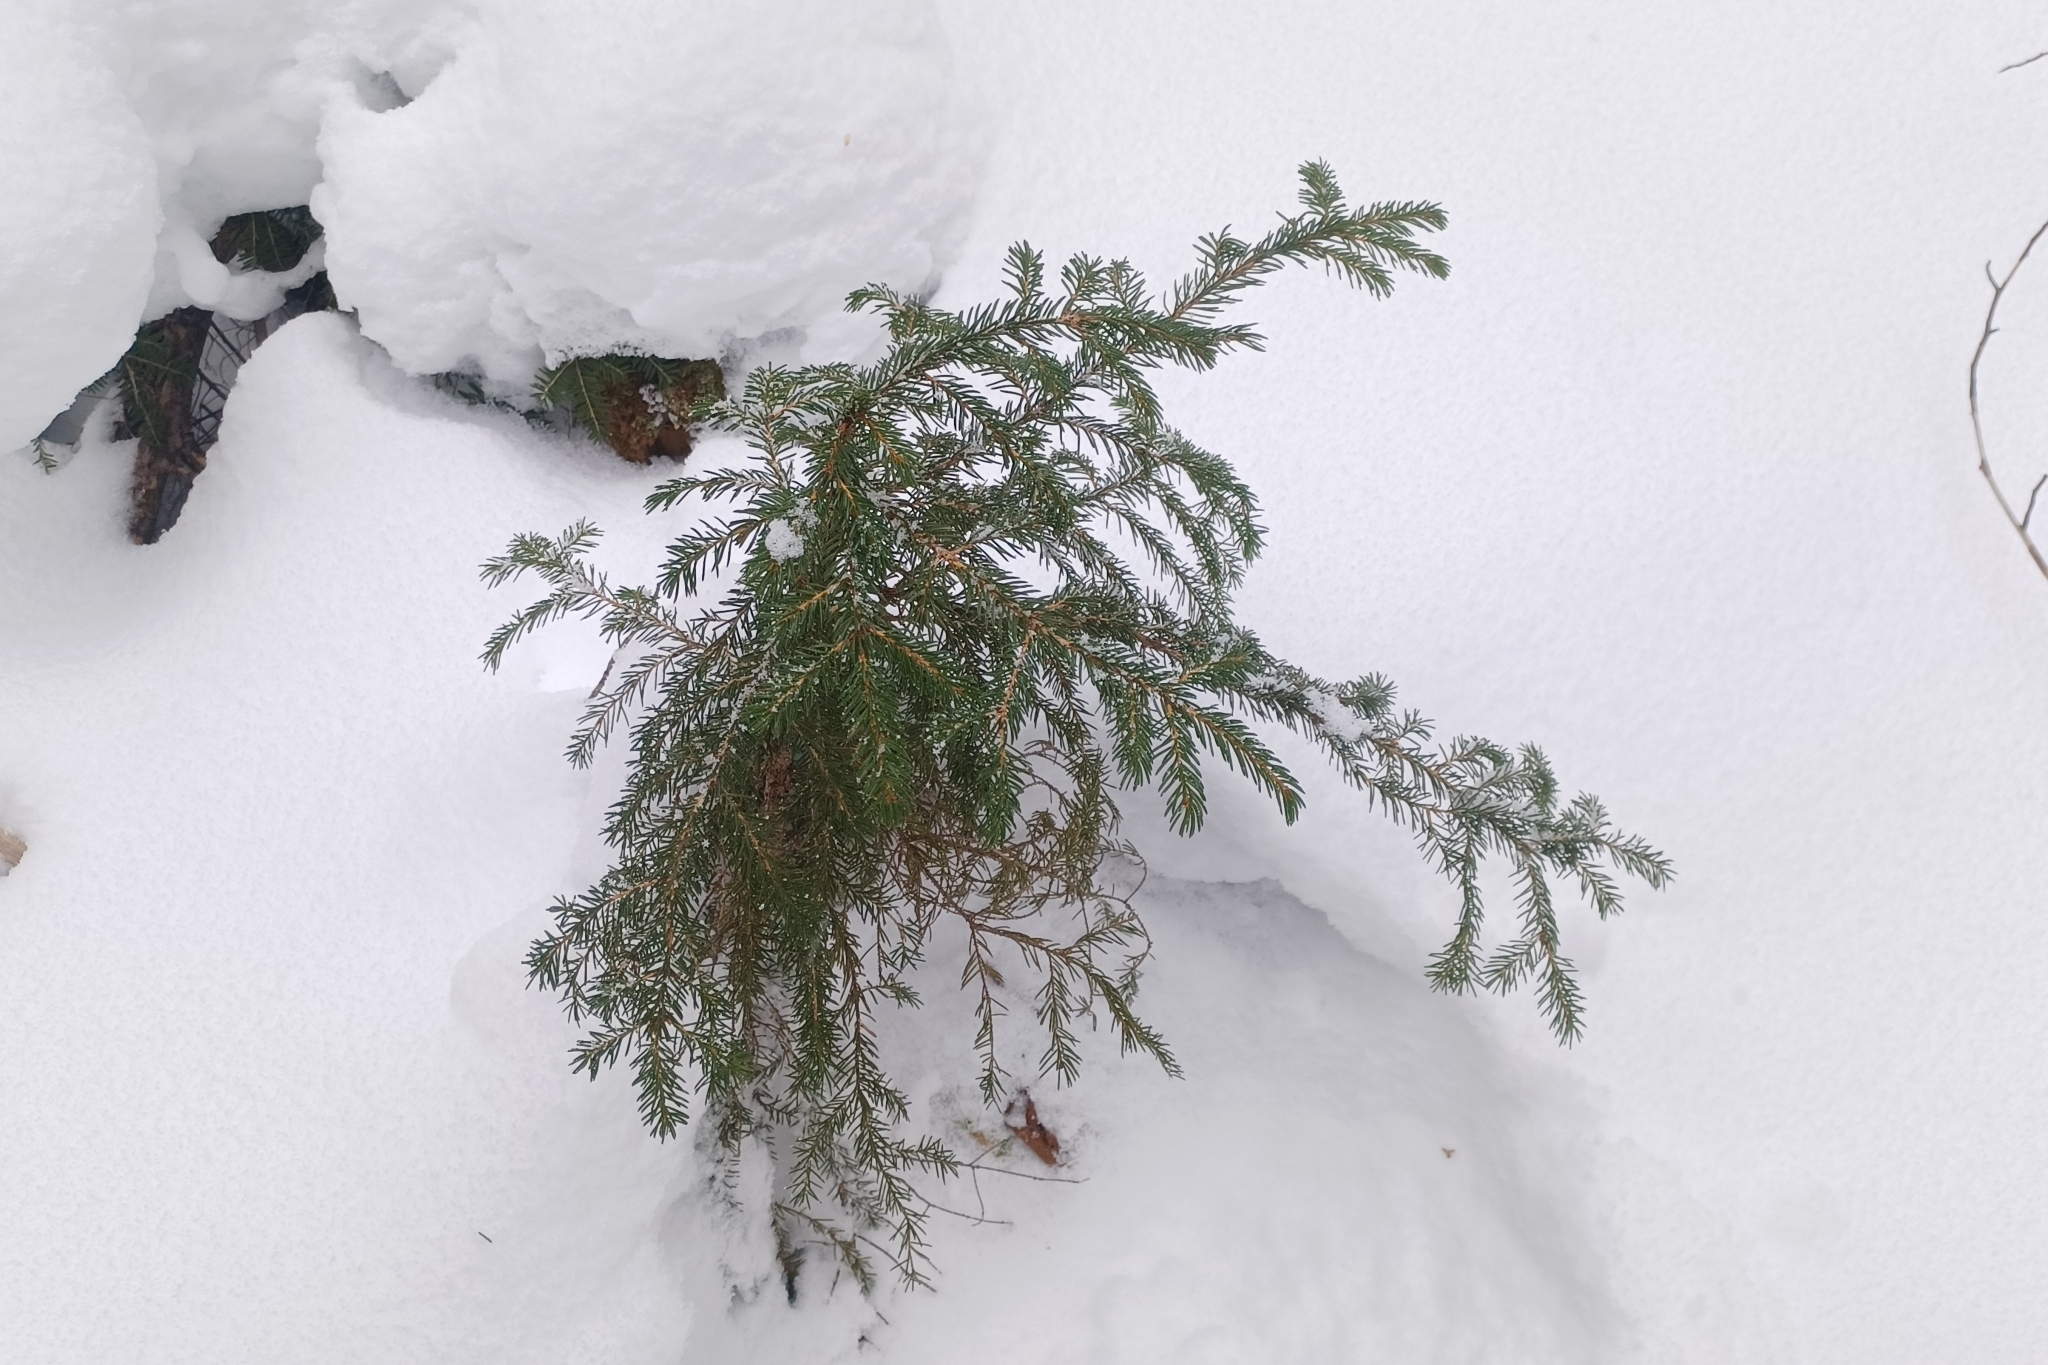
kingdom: Plantae
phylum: Tracheophyta
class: Pinopsida
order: Pinales
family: Pinaceae
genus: Picea
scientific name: Picea rubens
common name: Red spruce
